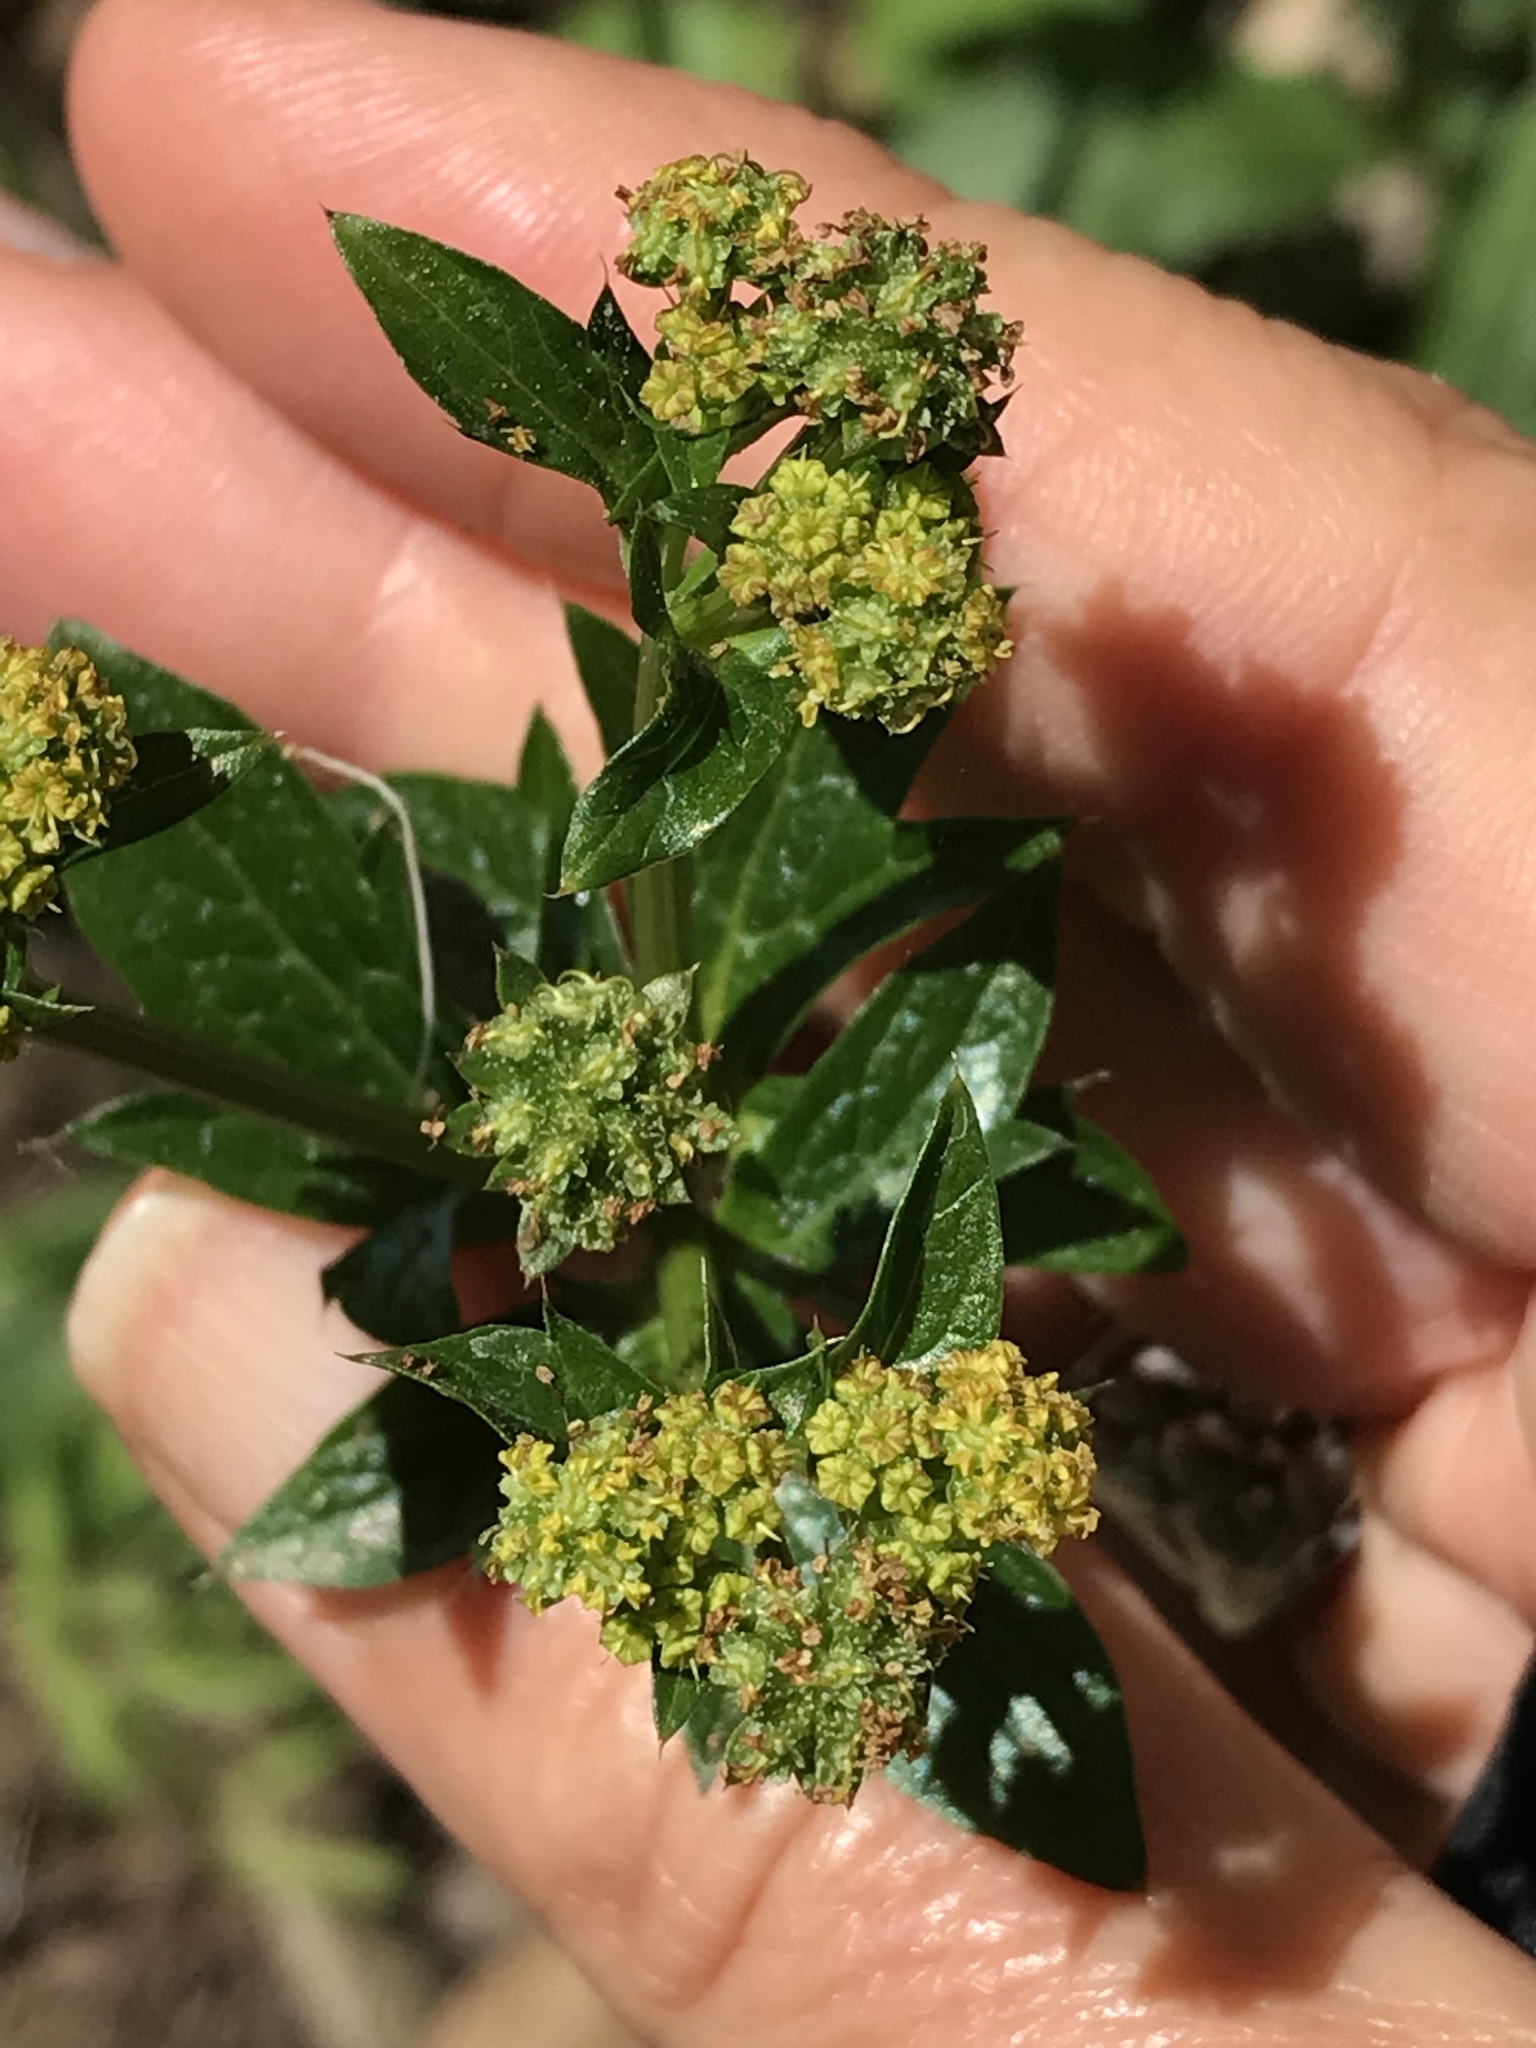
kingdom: Plantae
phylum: Tracheophyta
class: Magnoliopsida
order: Apiales
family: Apiaceae
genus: Sanicula
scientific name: Sanicula crassicaulis
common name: Western snakeroot
